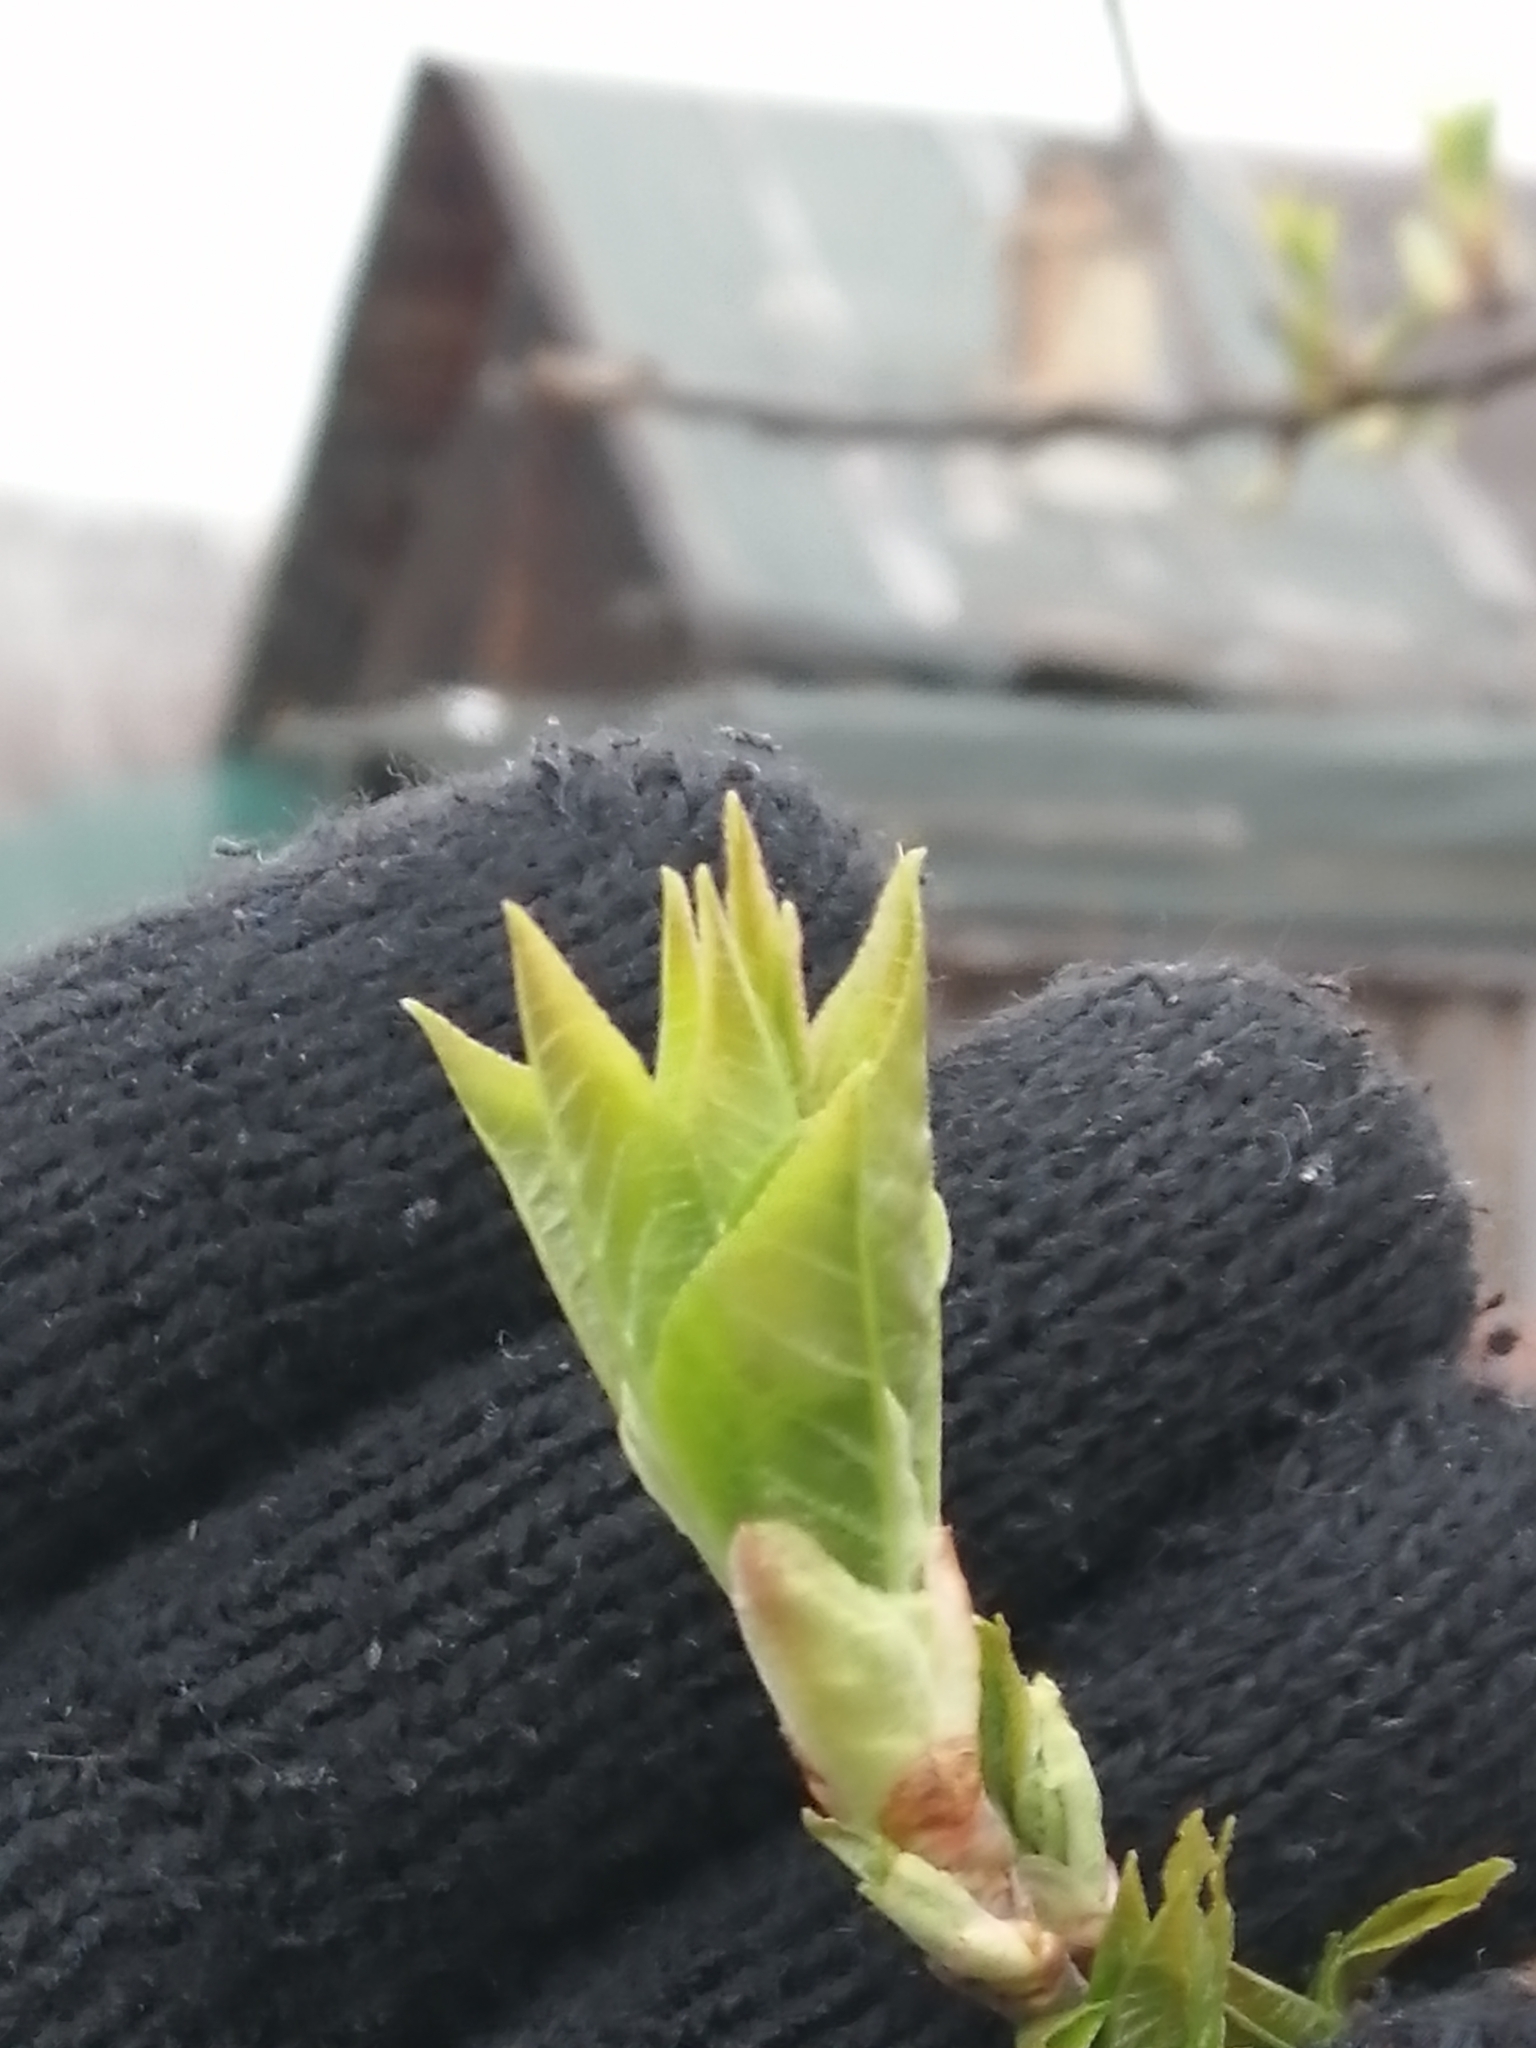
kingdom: Plantae
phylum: Tracheophyta
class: Magnoliopsida
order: Rosales
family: Rosaceae
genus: Prunus
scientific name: Prunus padus
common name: Bird cherry
